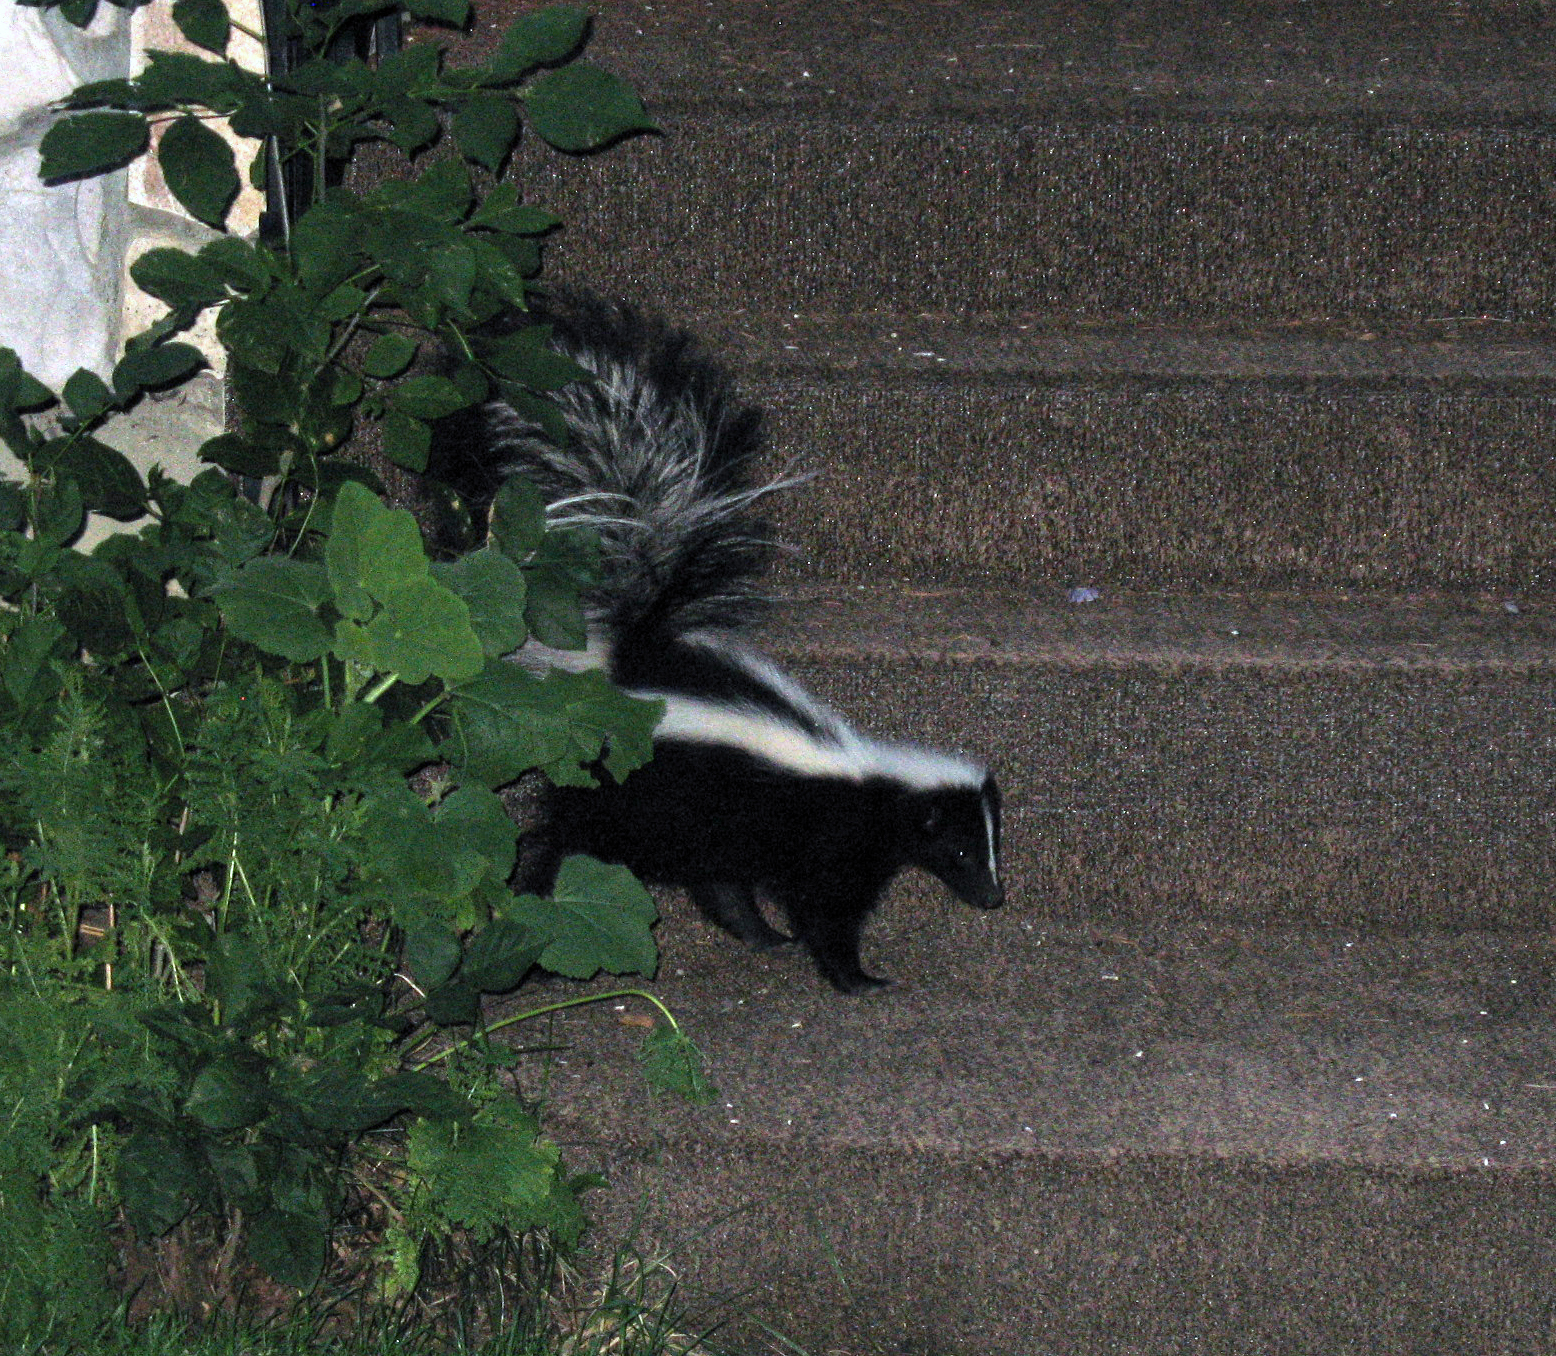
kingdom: Animalia
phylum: Chordata
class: Mammalia
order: Carnivora
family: Mephitidae
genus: Mephitis
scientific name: Mephitis mephitis
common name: Striped skunk
